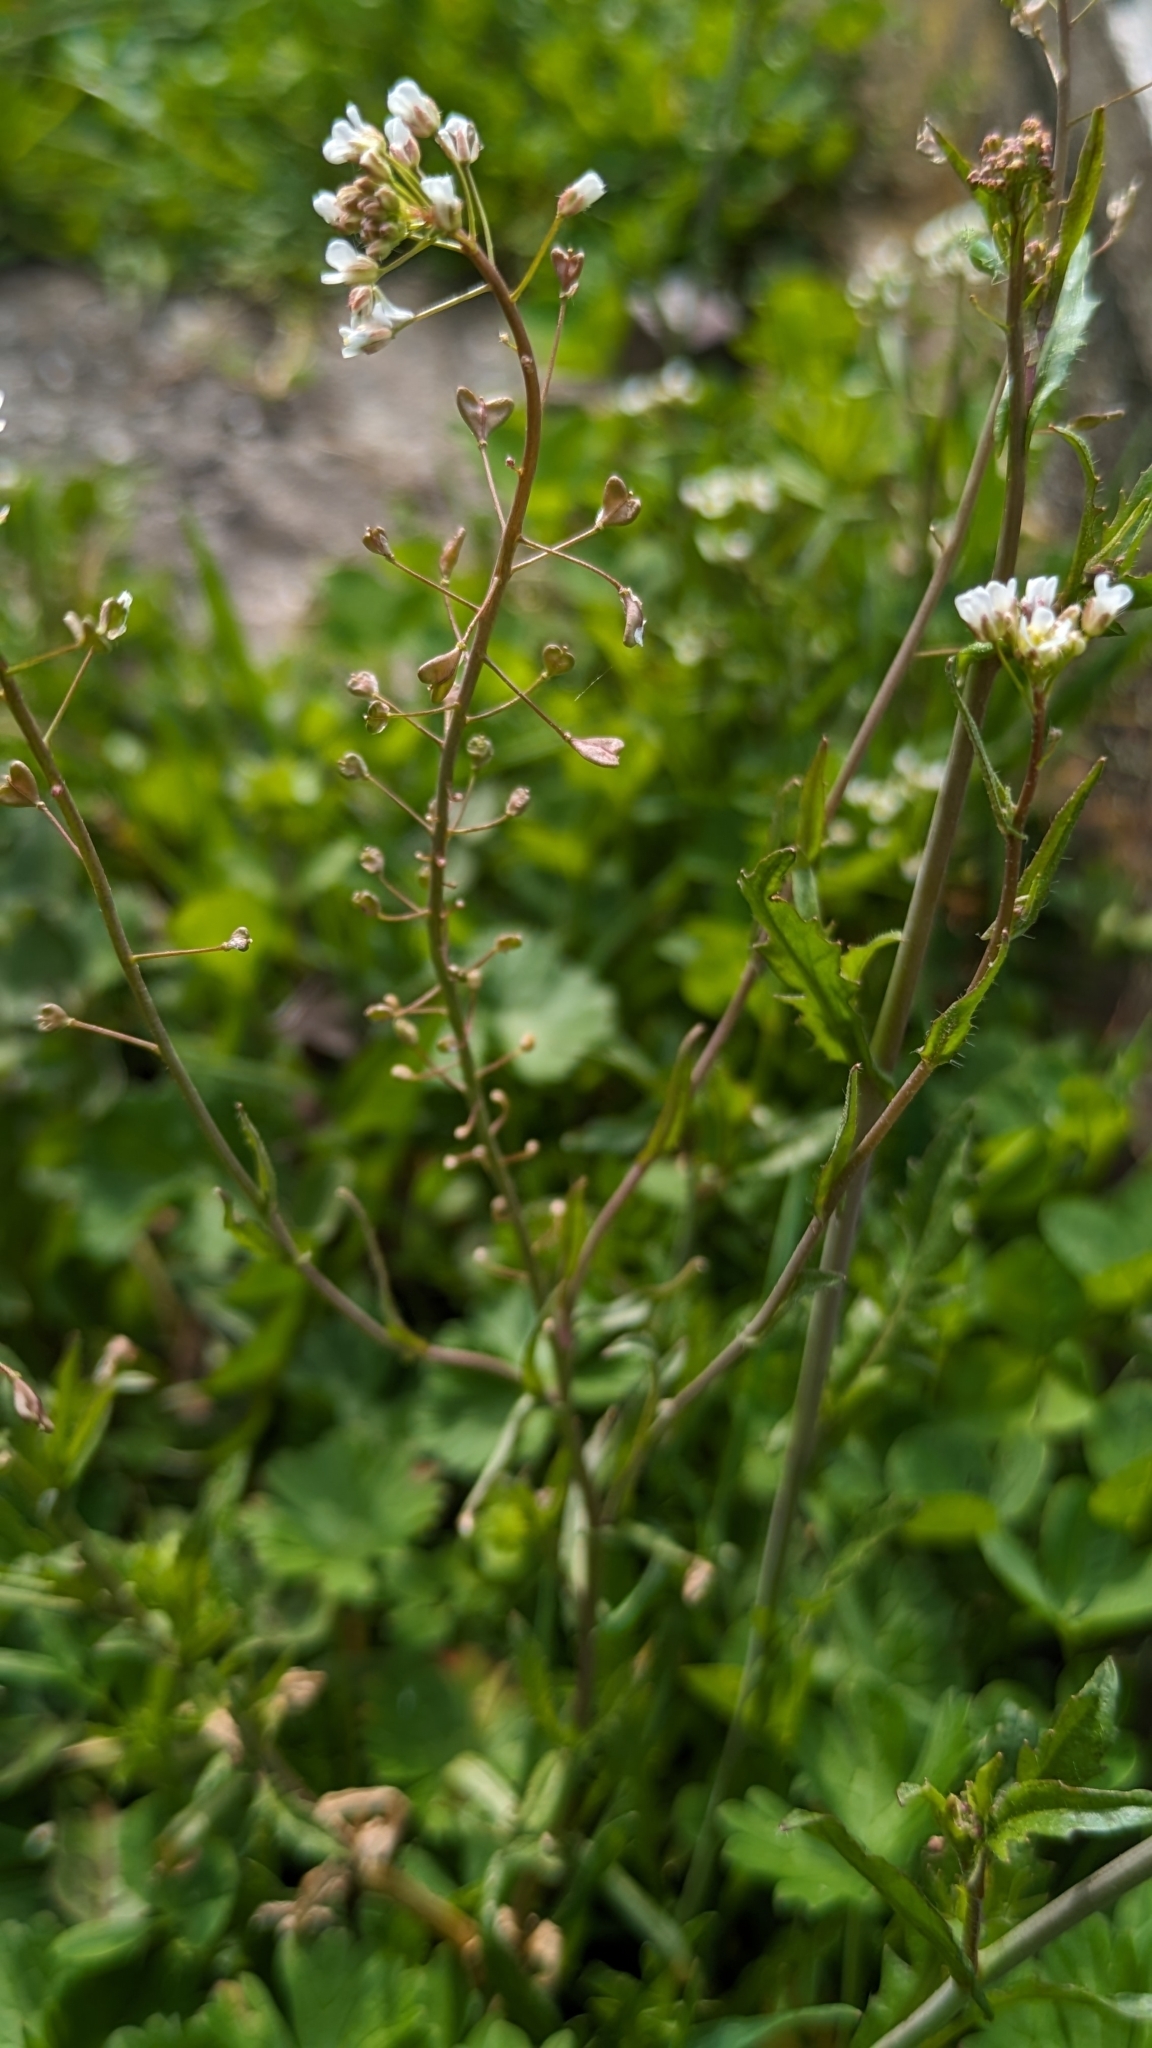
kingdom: Plantae
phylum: Tracheophyta
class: Magnoliopsida
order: Brassicales
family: Brassicaceae
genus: Capsella
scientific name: Capsella bursa-pastoris
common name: Shepherd's purse
